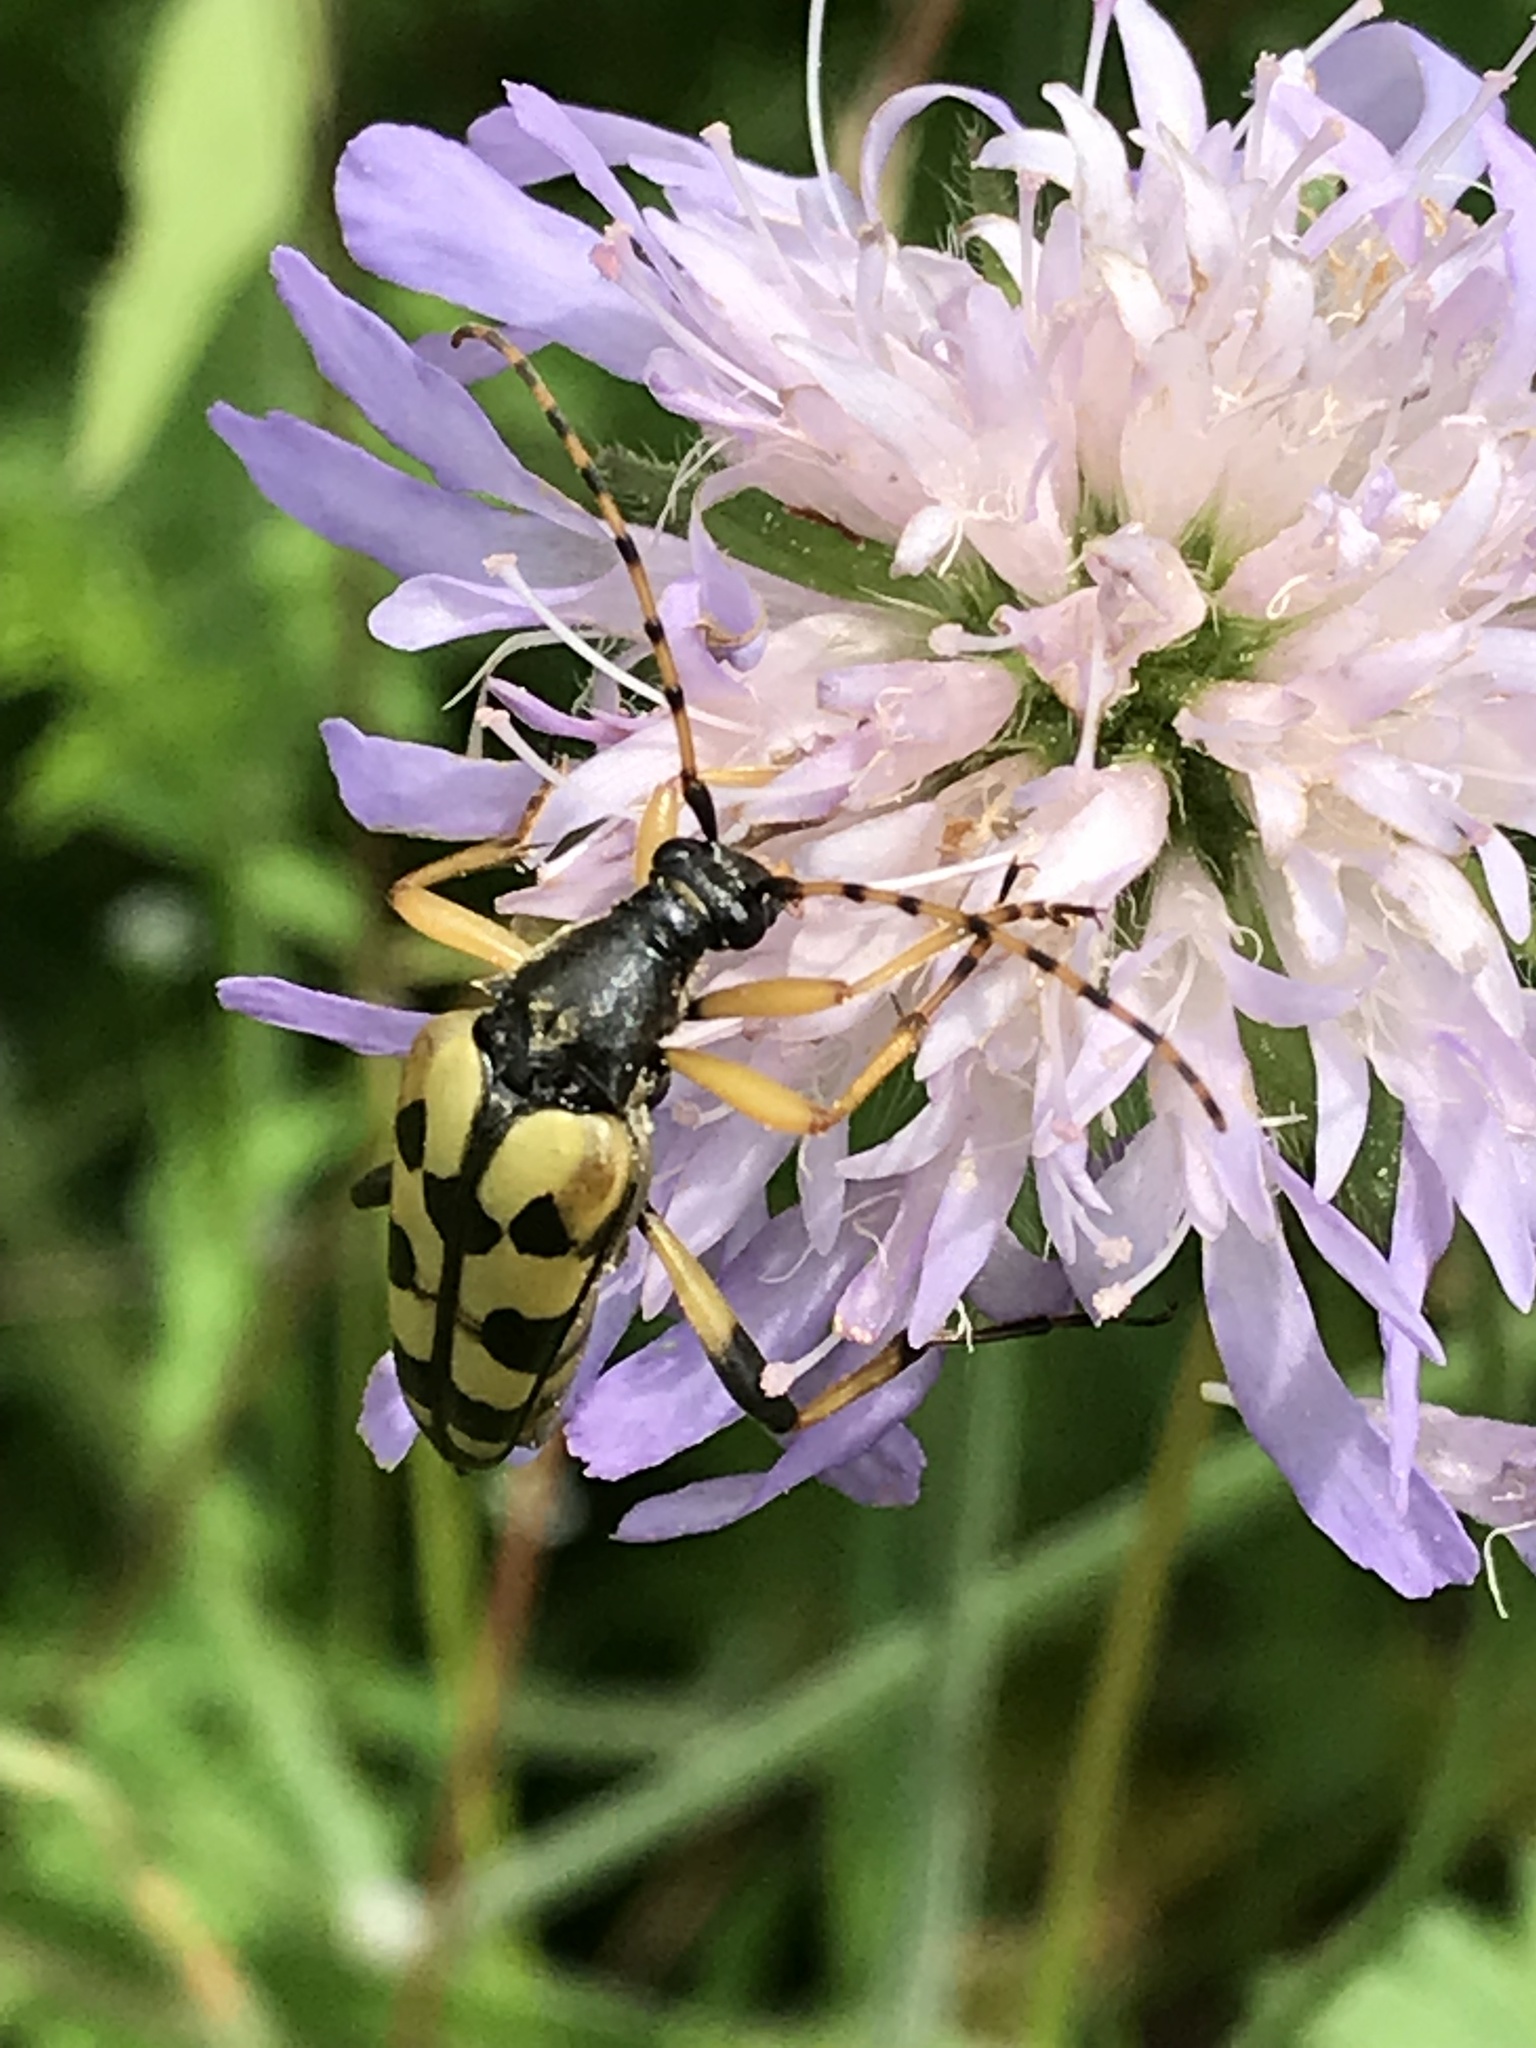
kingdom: Animalia
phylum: Arthropoda
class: Insecta
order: Coleoptera
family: Cerambycidae
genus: Rutpela
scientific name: Rutpela maculata
